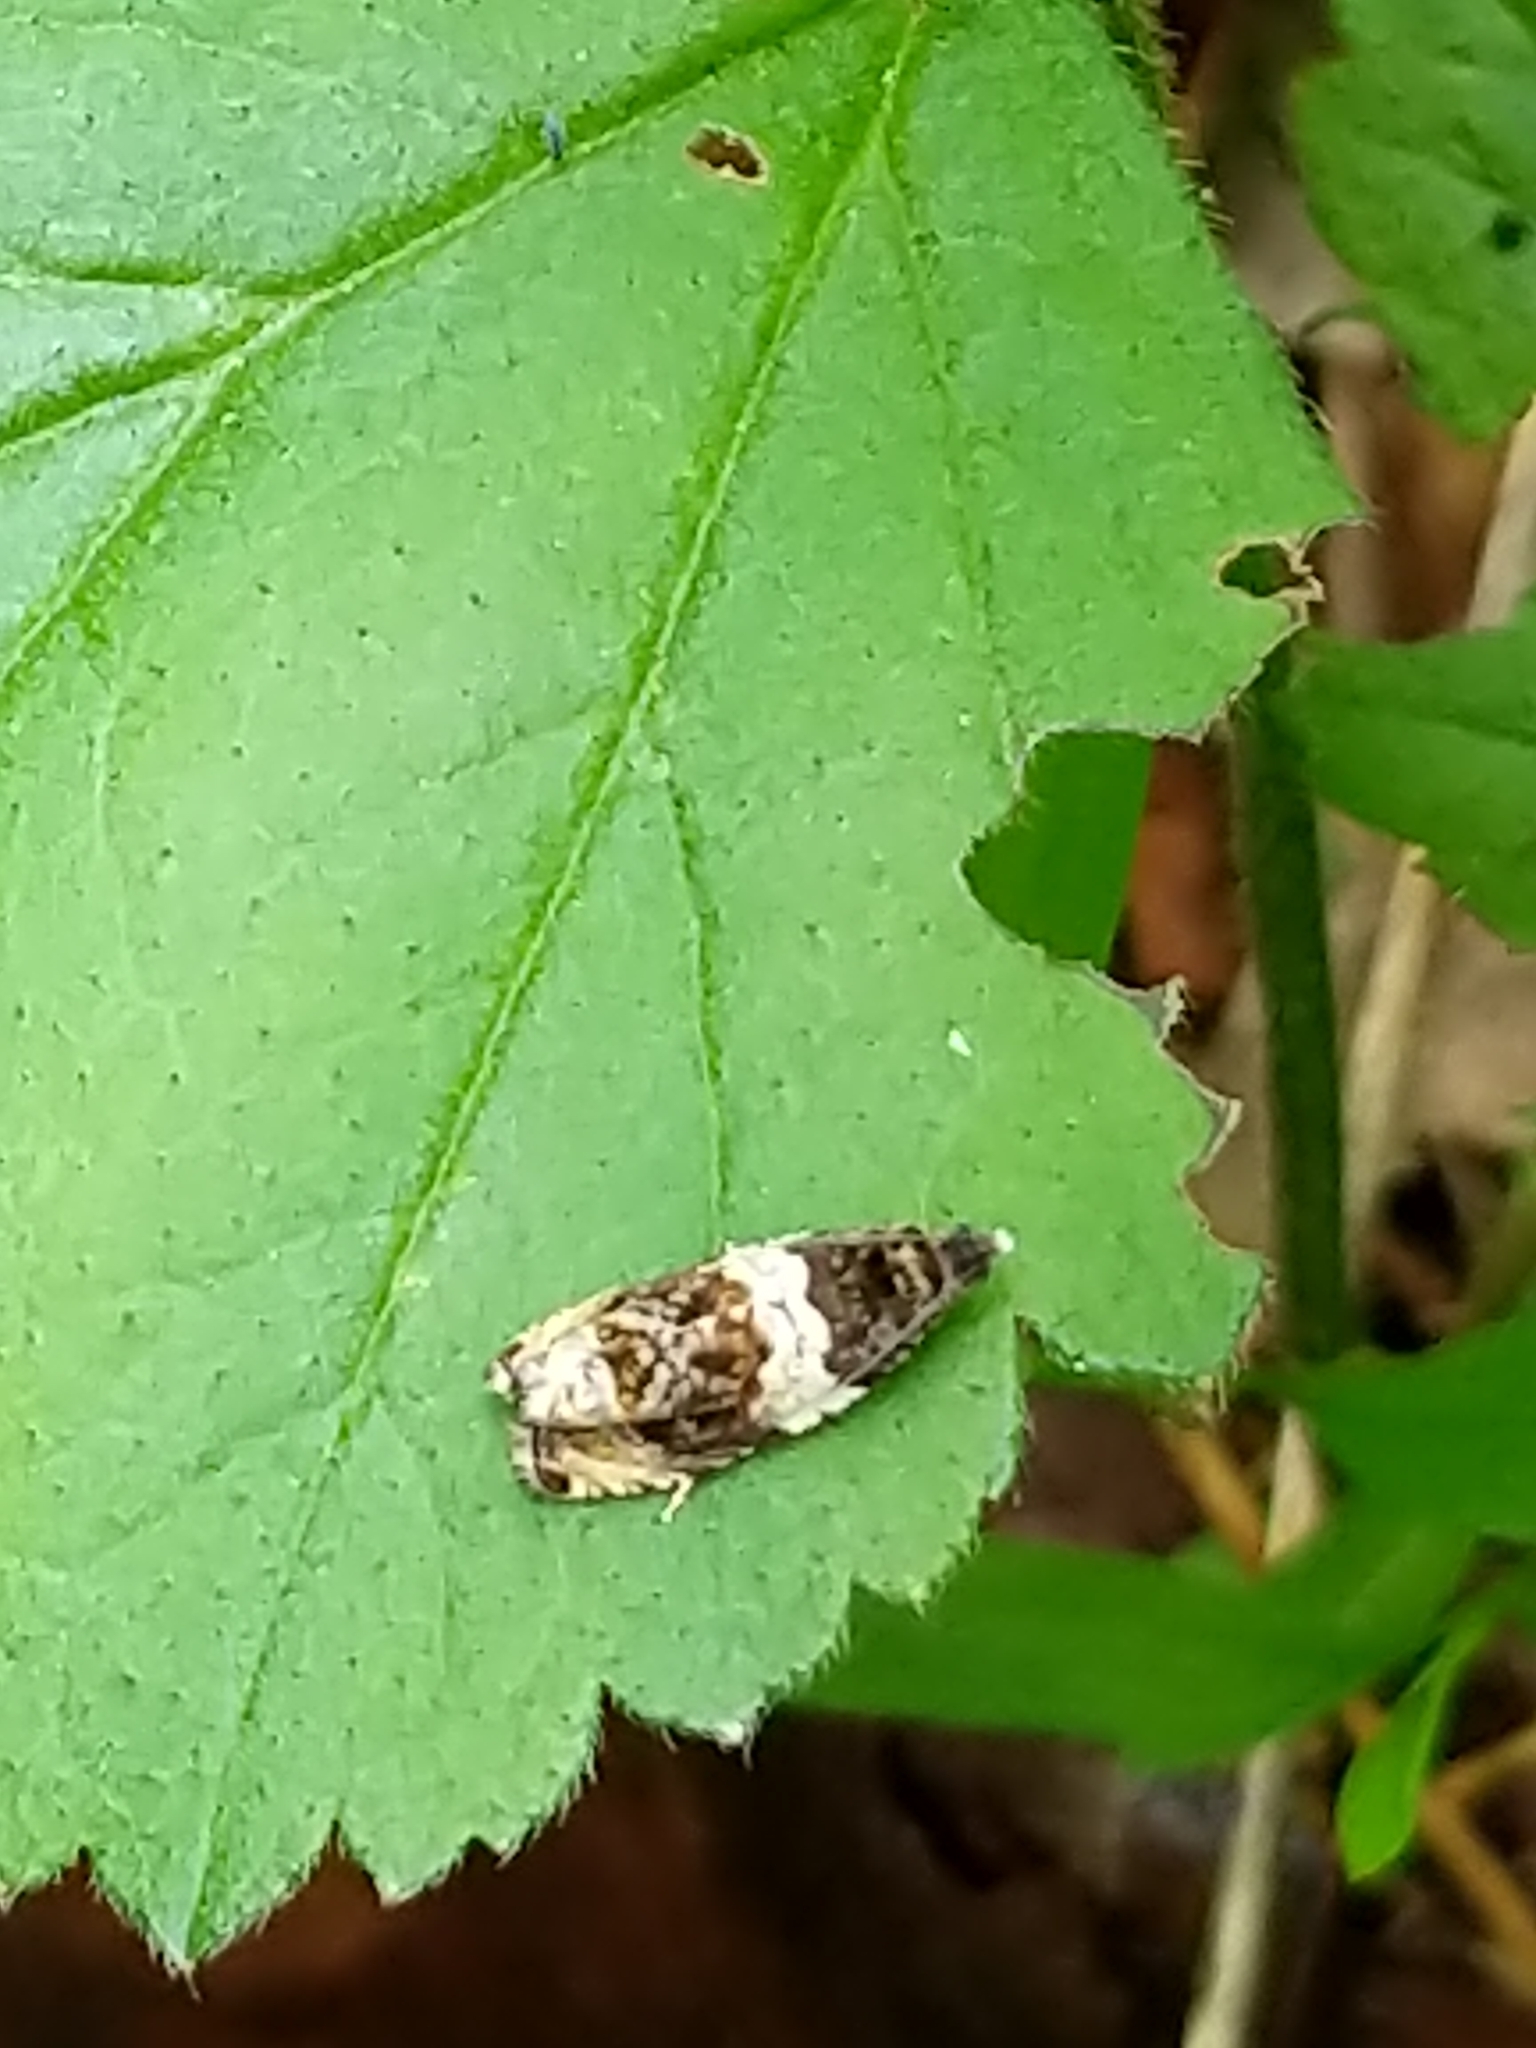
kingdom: Animalia
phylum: Arthropoda
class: Insecta
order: Lepidoptera
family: Tortricidae
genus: Olethreutes
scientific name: Olethreutes fasciatana
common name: Banded olethreutes moth
